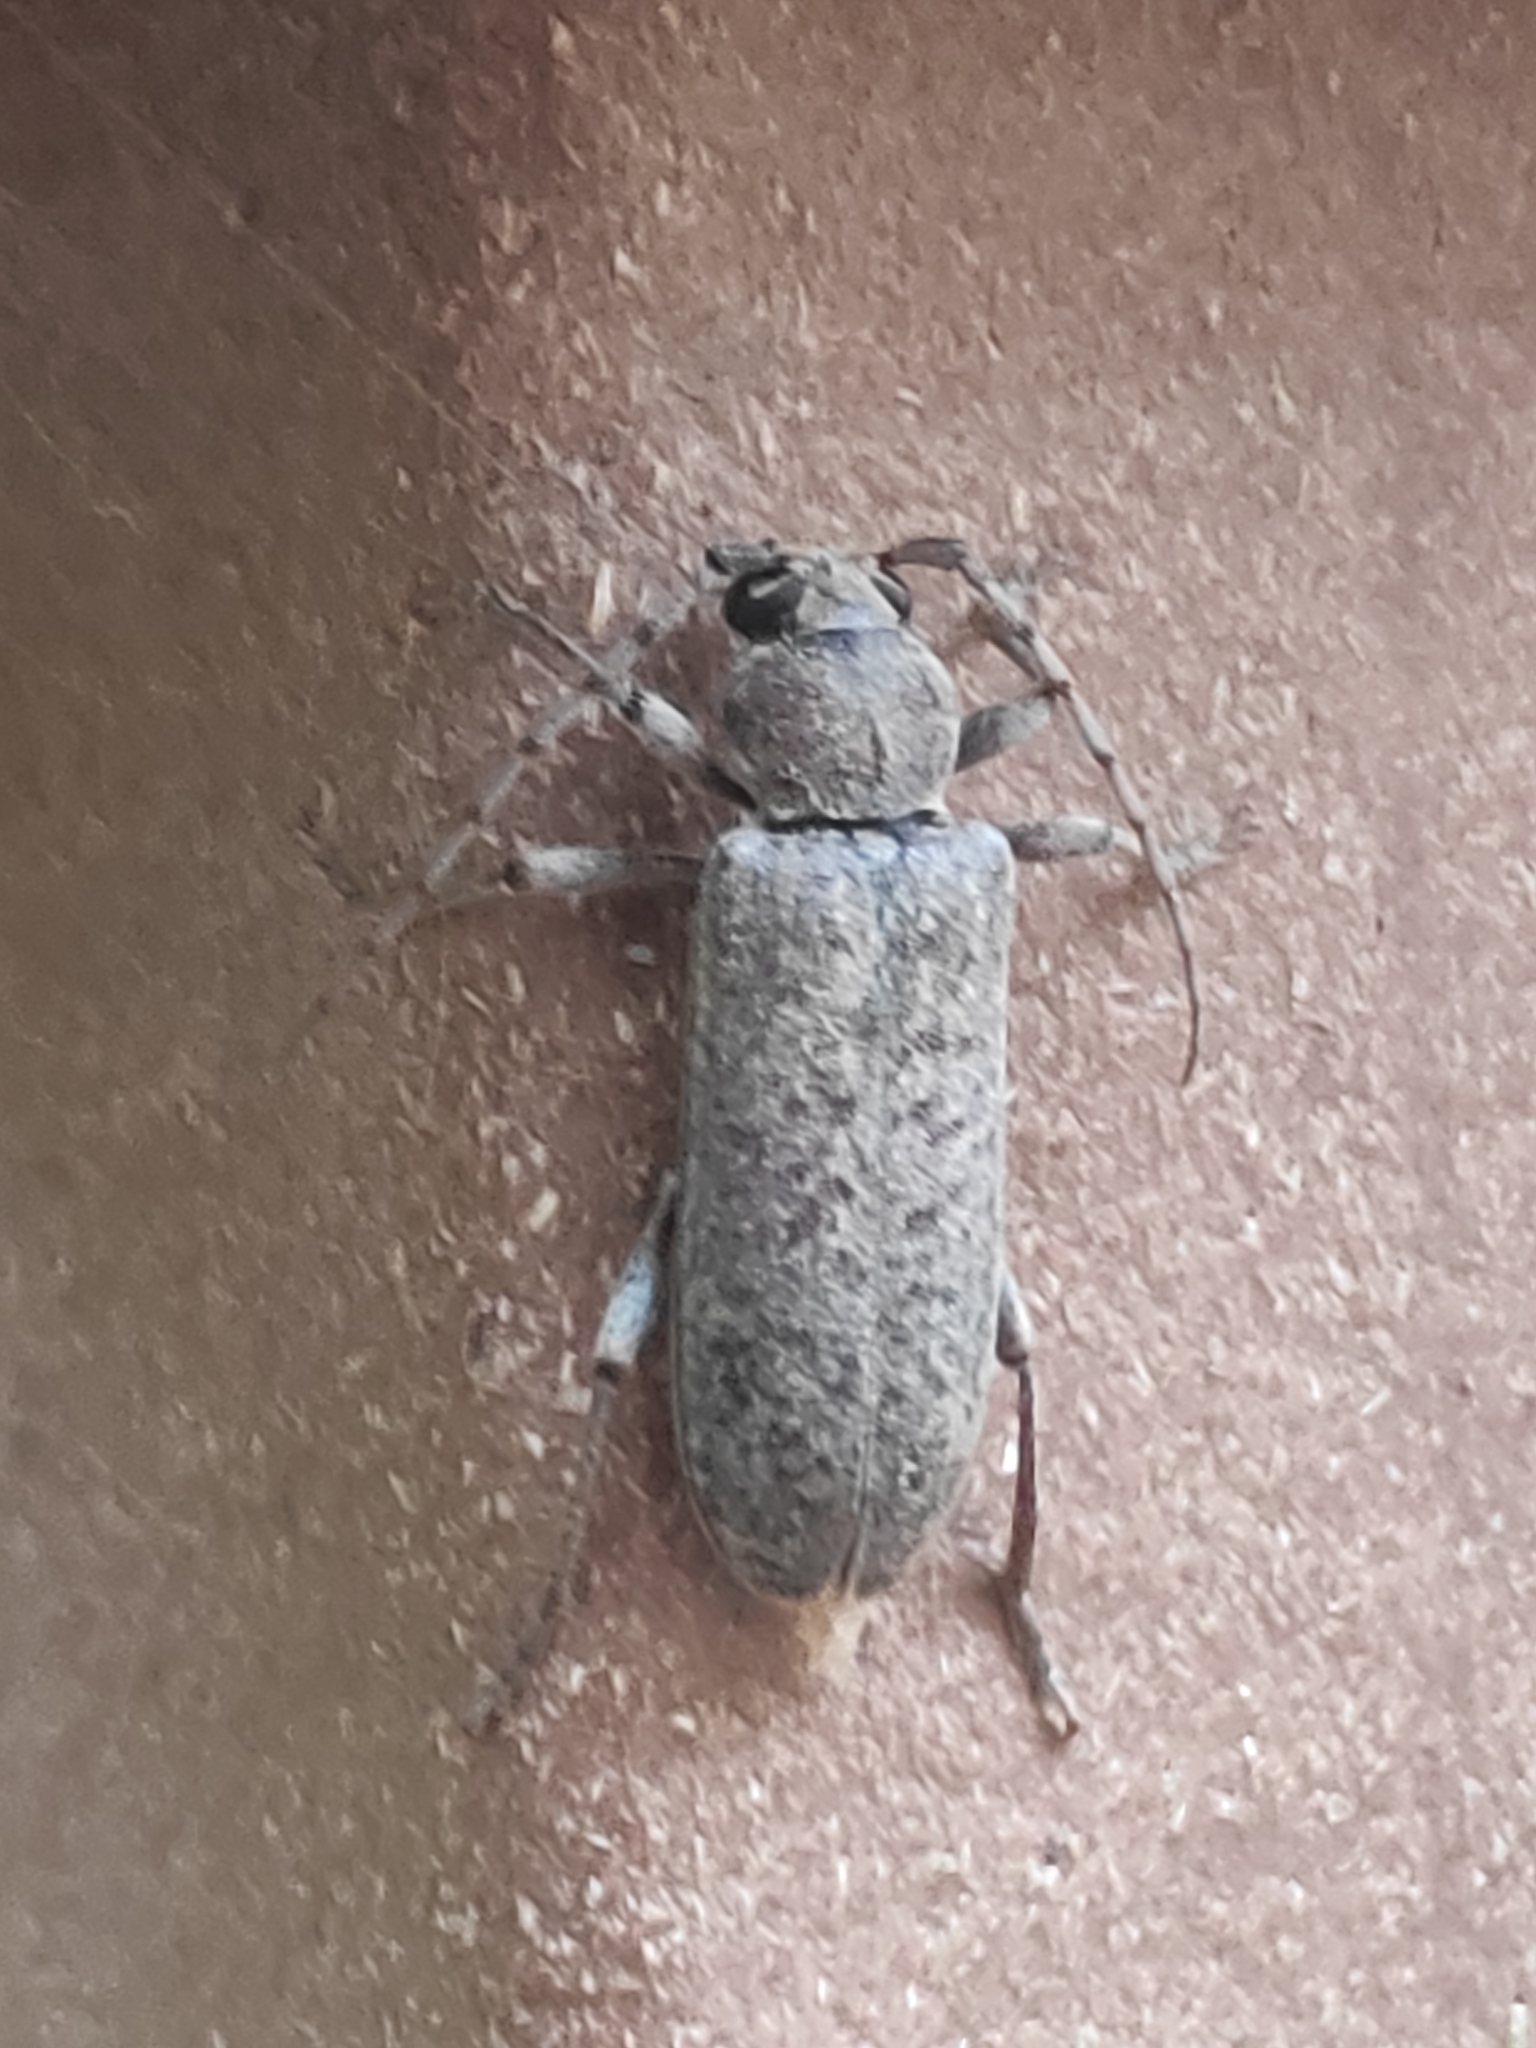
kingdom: Animalia
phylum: Arthropoda
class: Insecta
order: Coleoptera
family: Cerambycidae
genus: Trichoferus
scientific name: Trichoferus holosericeus
